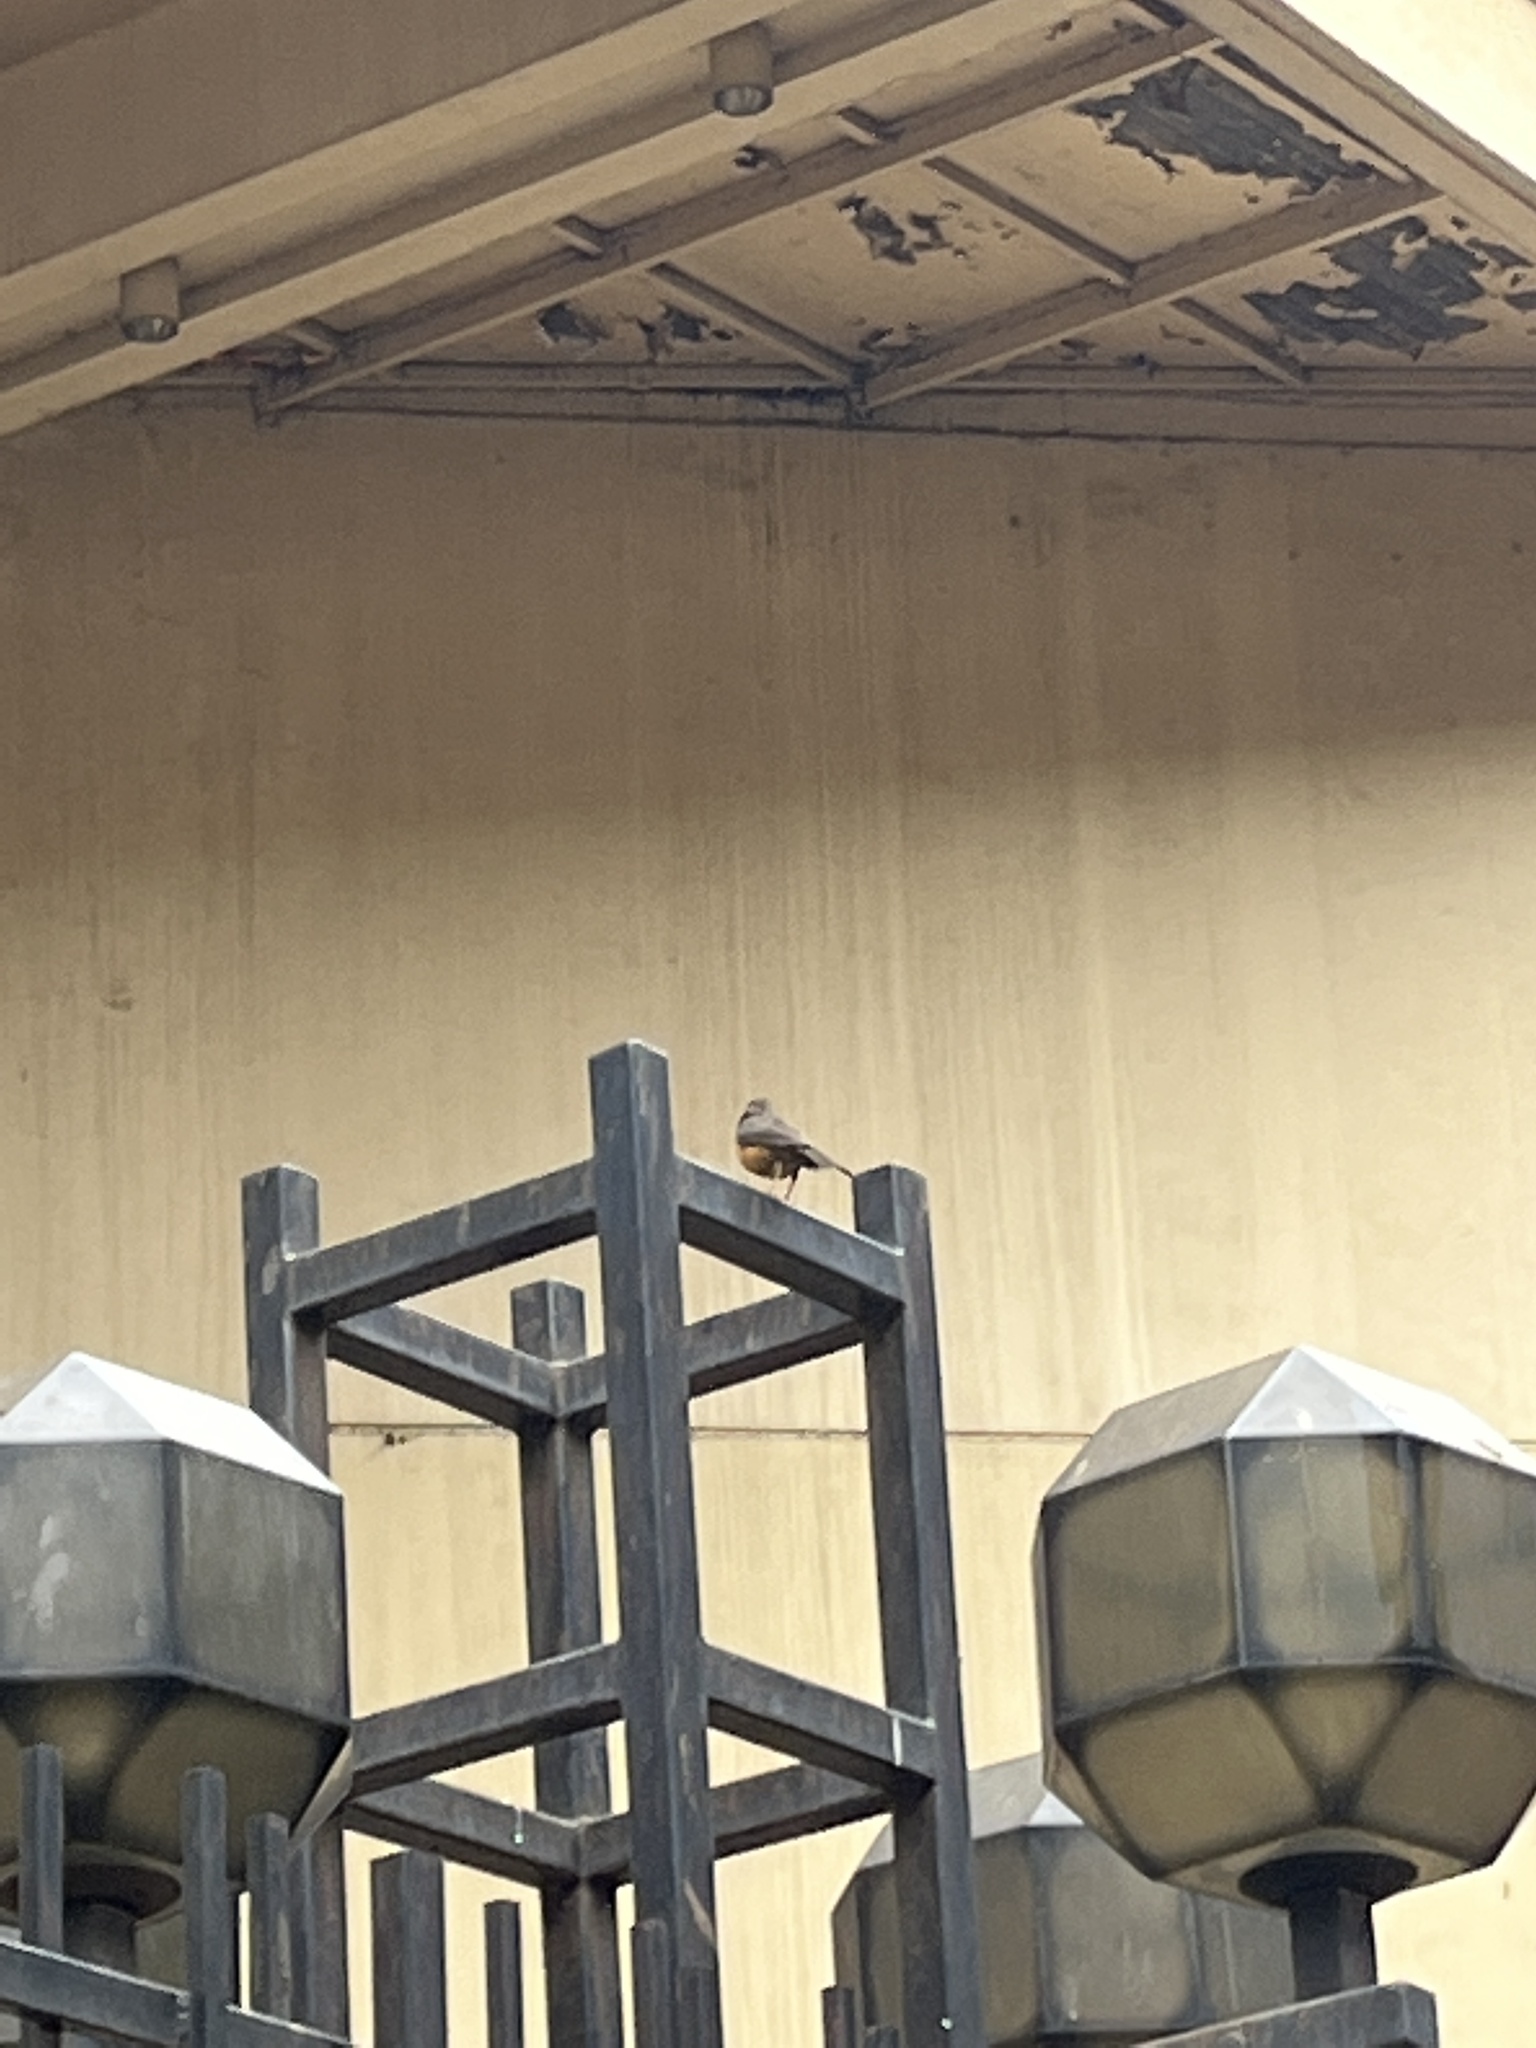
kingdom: Animalia
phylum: Chordata
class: Aves
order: Passeriformes
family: Turdidae
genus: Turdus
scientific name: Turdus abyssinicus
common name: Abyssinian thrush
